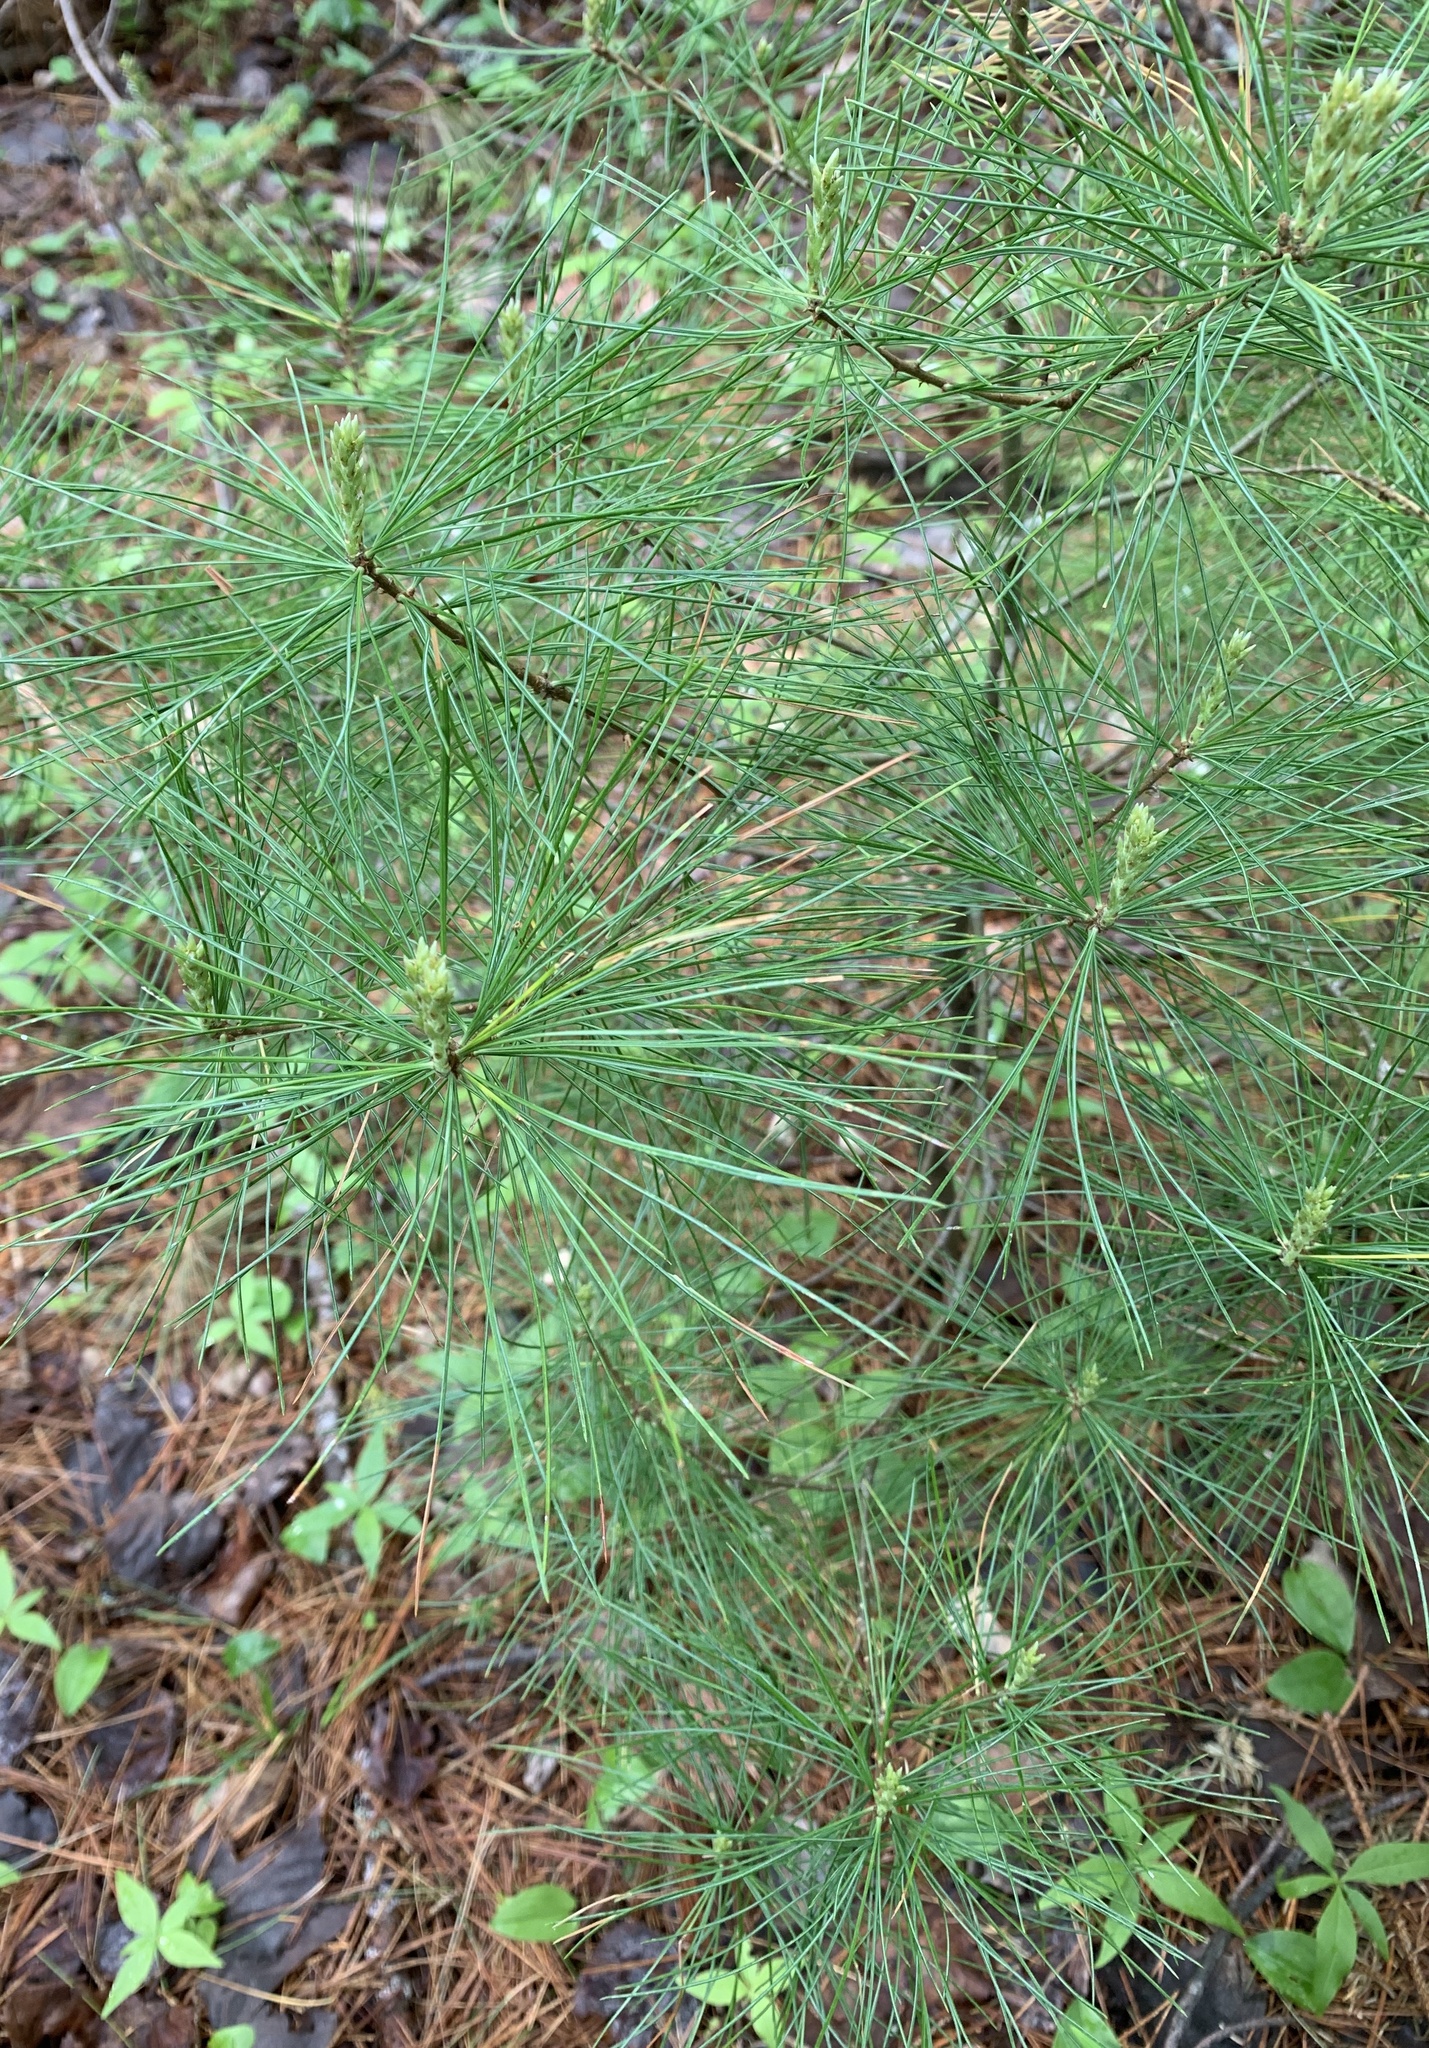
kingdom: Plantae
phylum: Tracheophyta
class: Pinopsida
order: Pinales
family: Pinaceae
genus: Pinus
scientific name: Pinus strobus
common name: Weymouth pine
